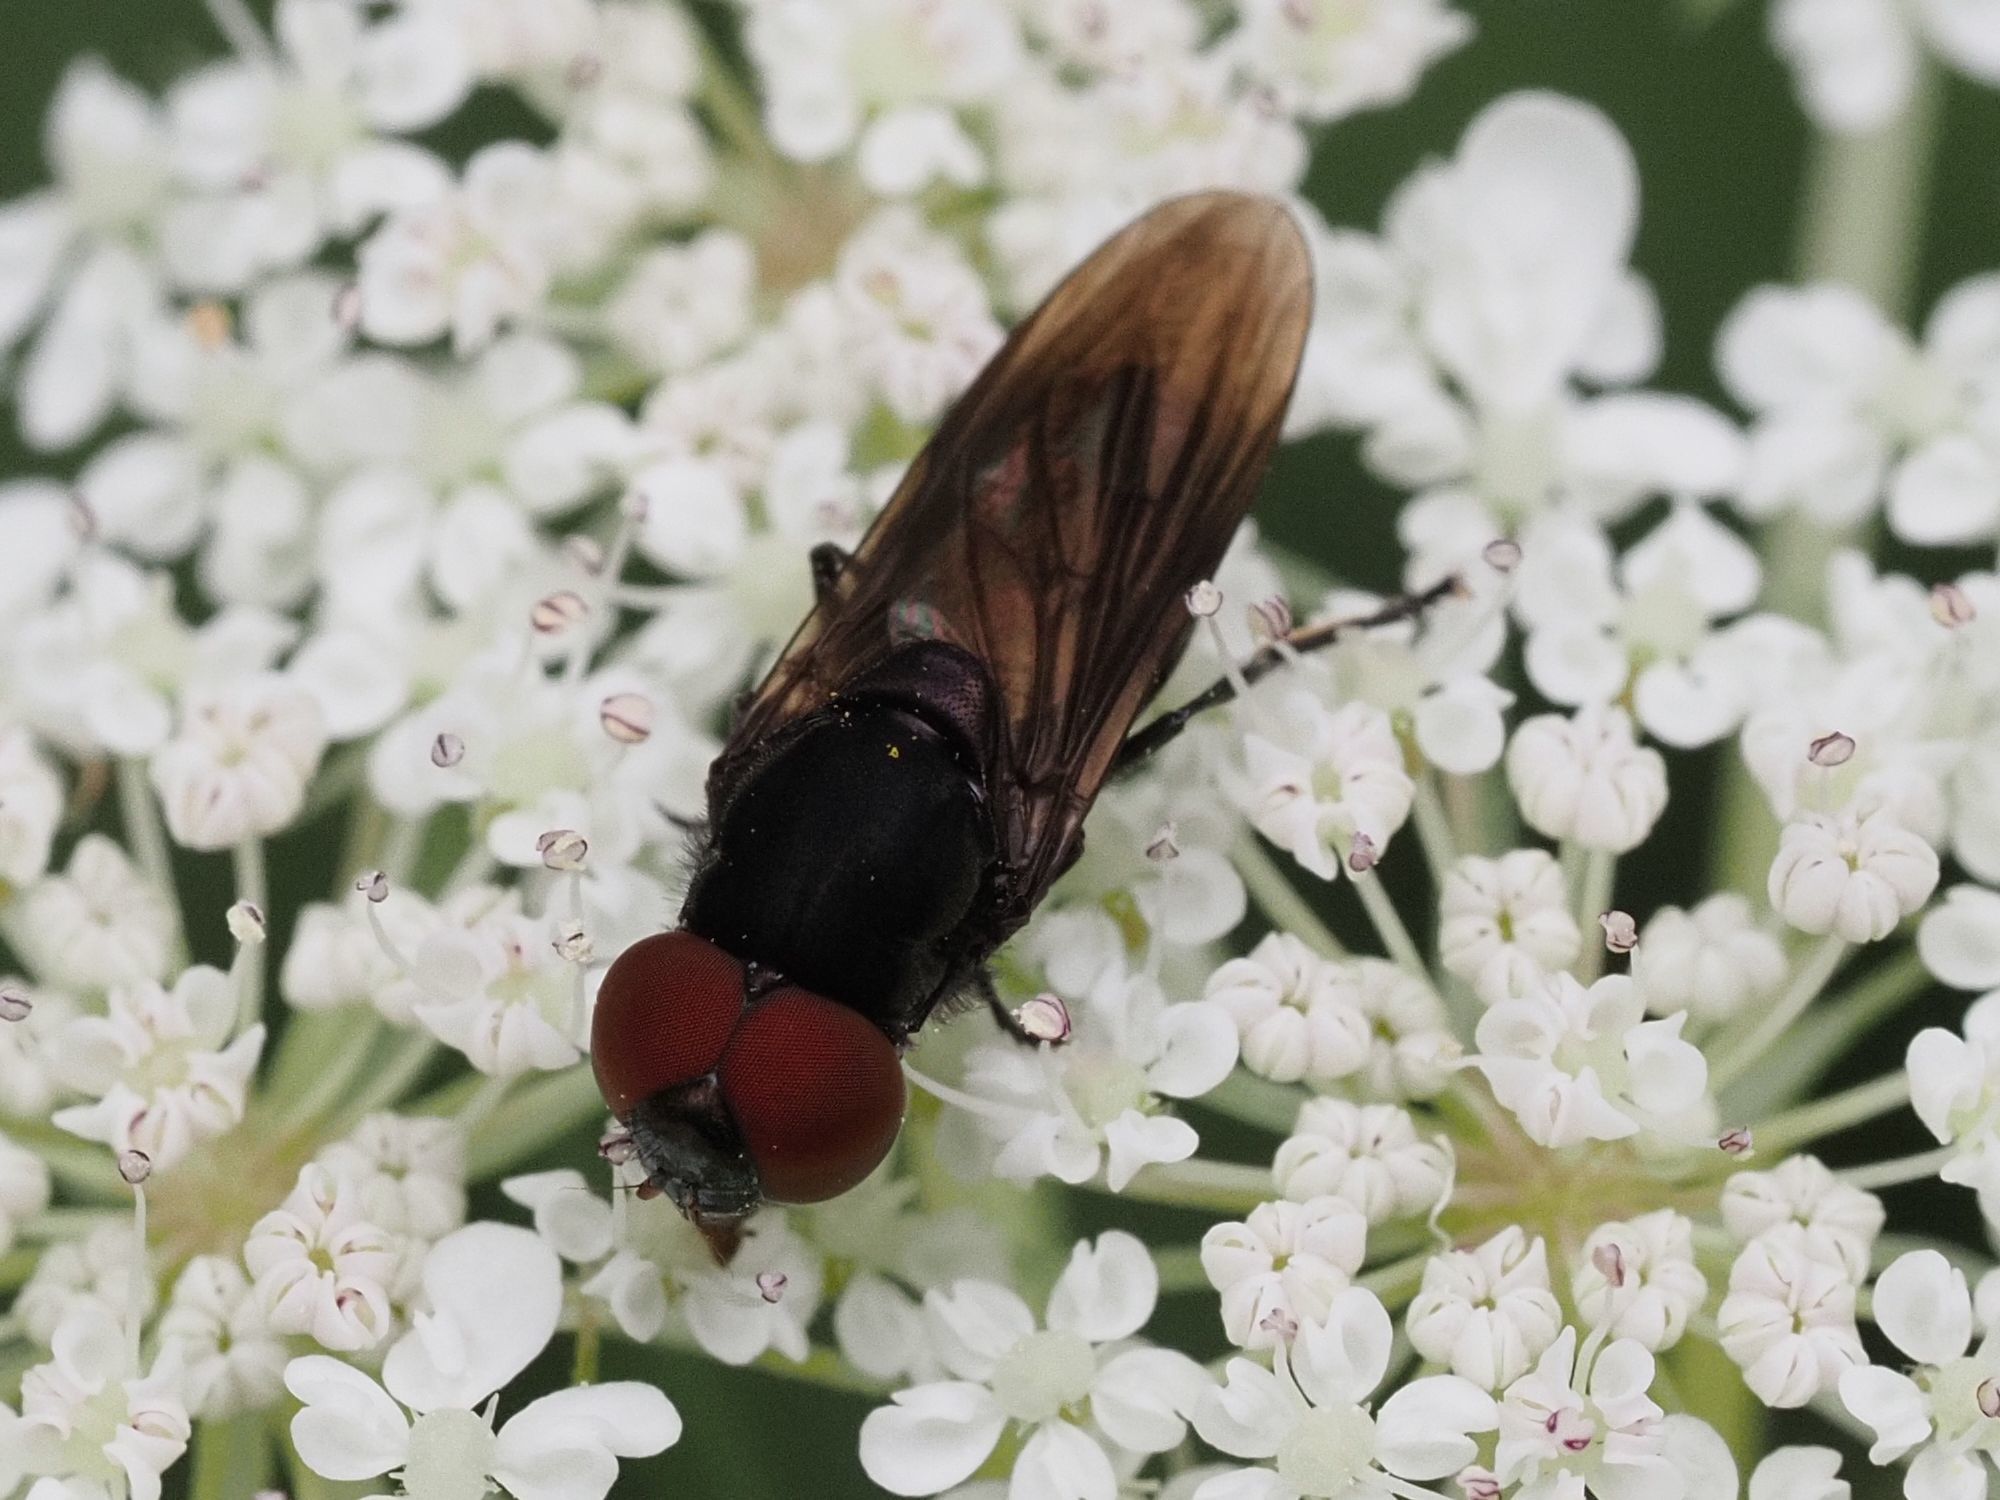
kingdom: Animalia
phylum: Arthropoda
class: Insecta
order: Diptera
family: Syrphidae
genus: Chrysogaster
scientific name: Chrysogaster solstitialis
